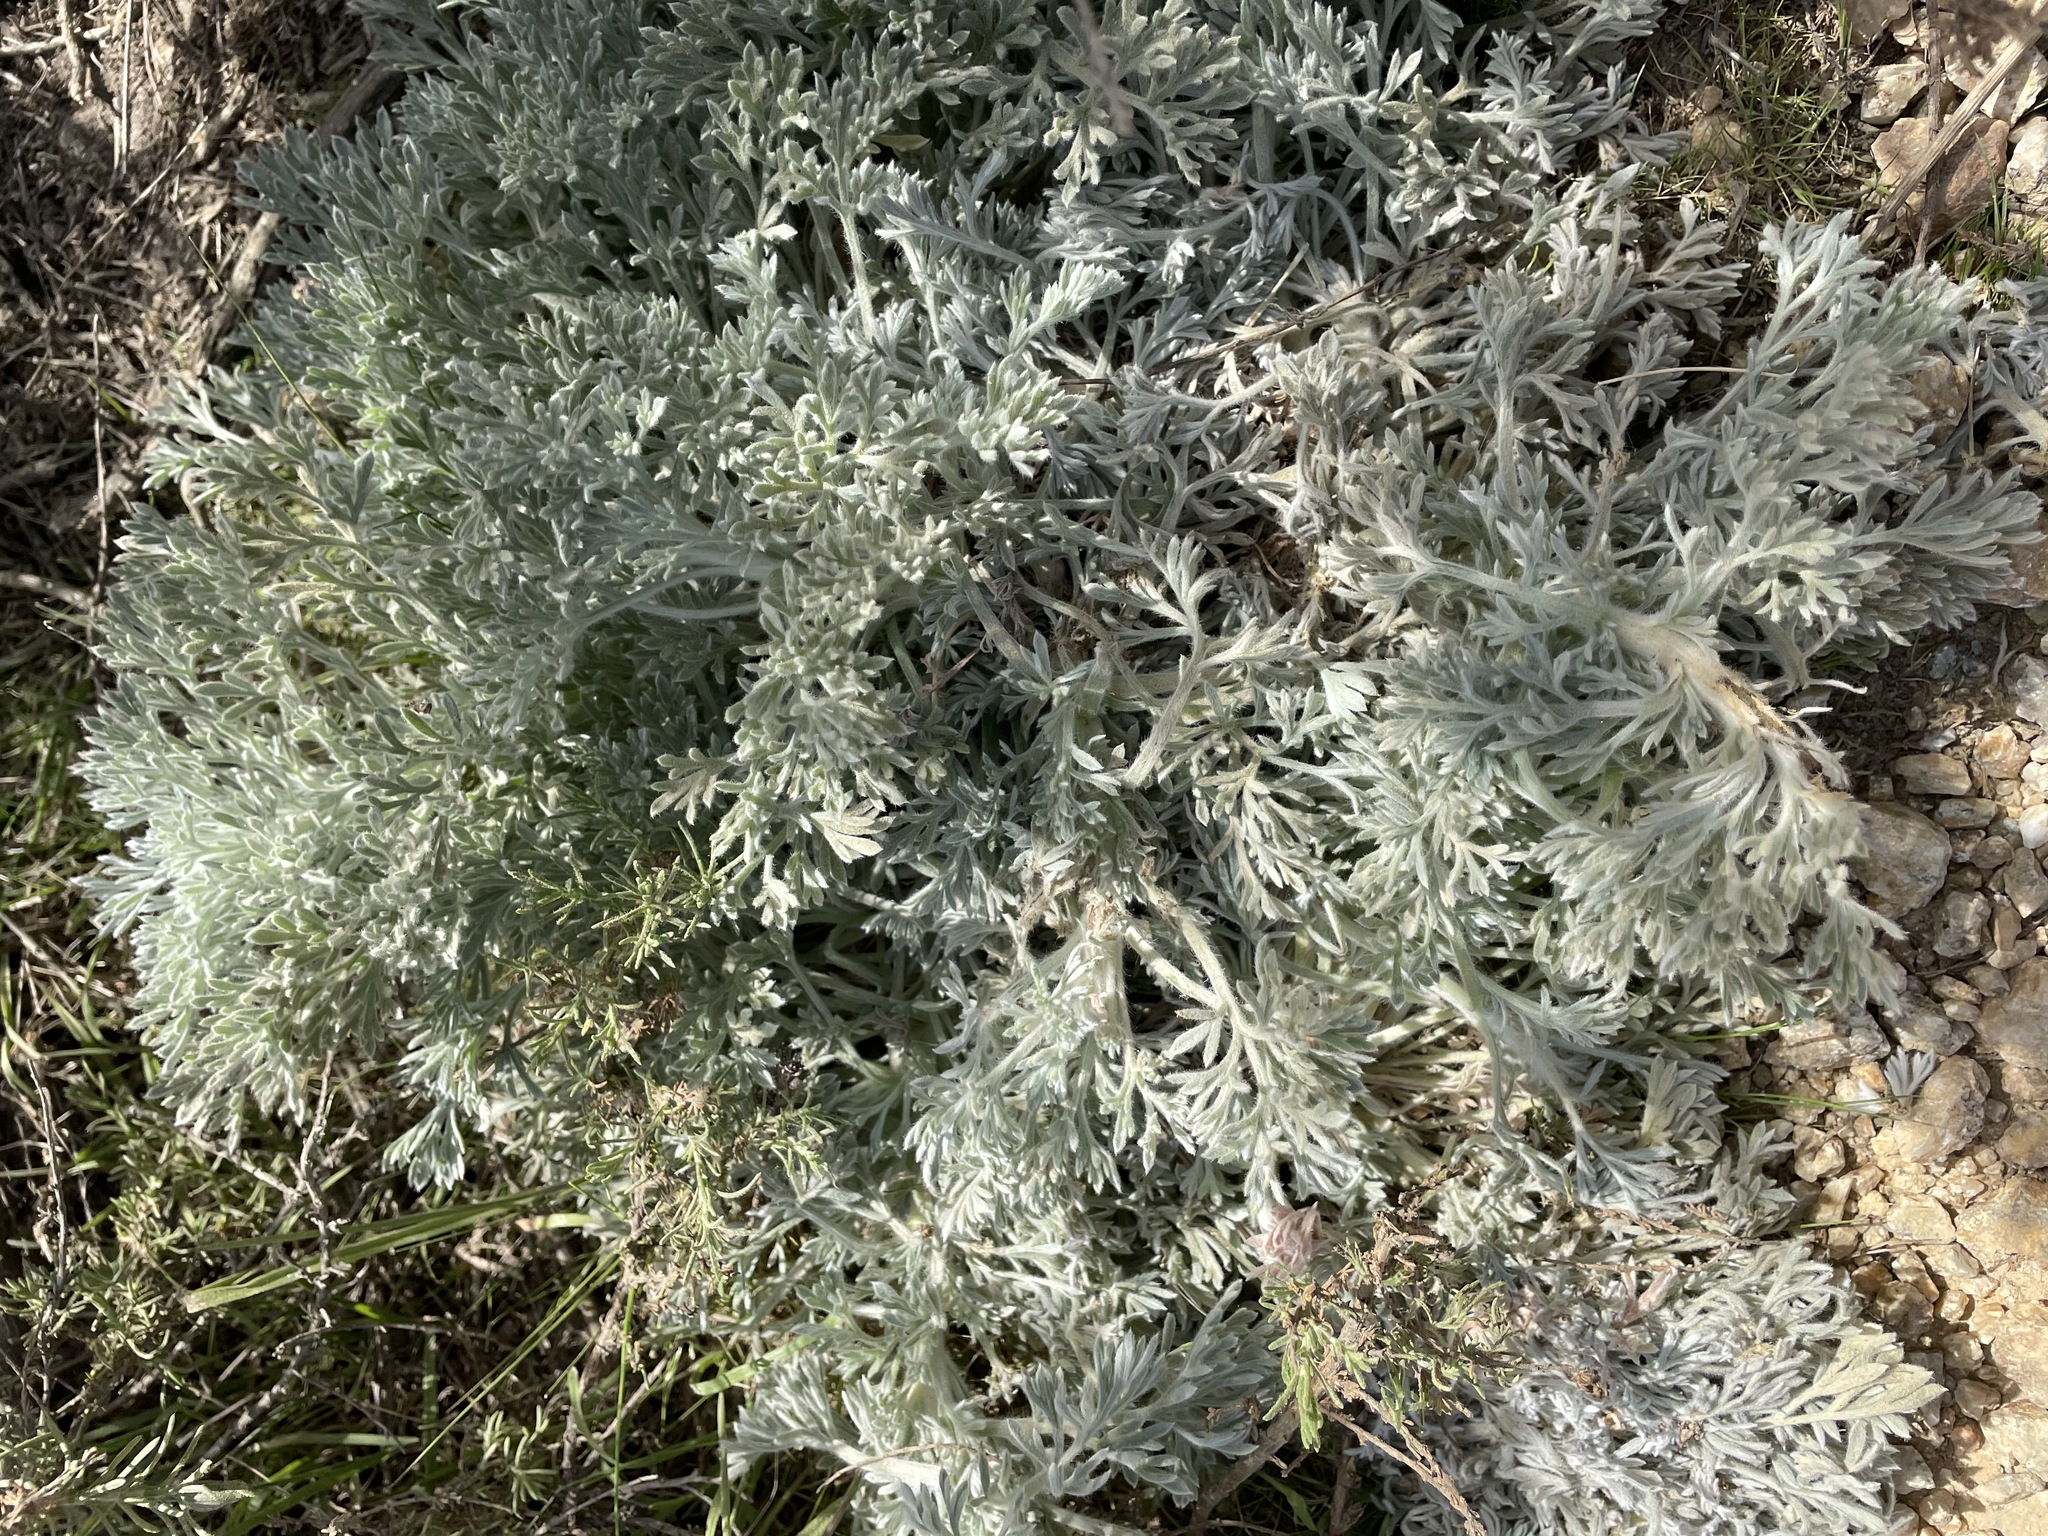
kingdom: Plantae
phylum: Tracheophyta
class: Magnoliopsida
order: Asterales
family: Asteraceae
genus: Artemisia
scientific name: Artemisia pycnocephala
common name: Coastal sagewort
